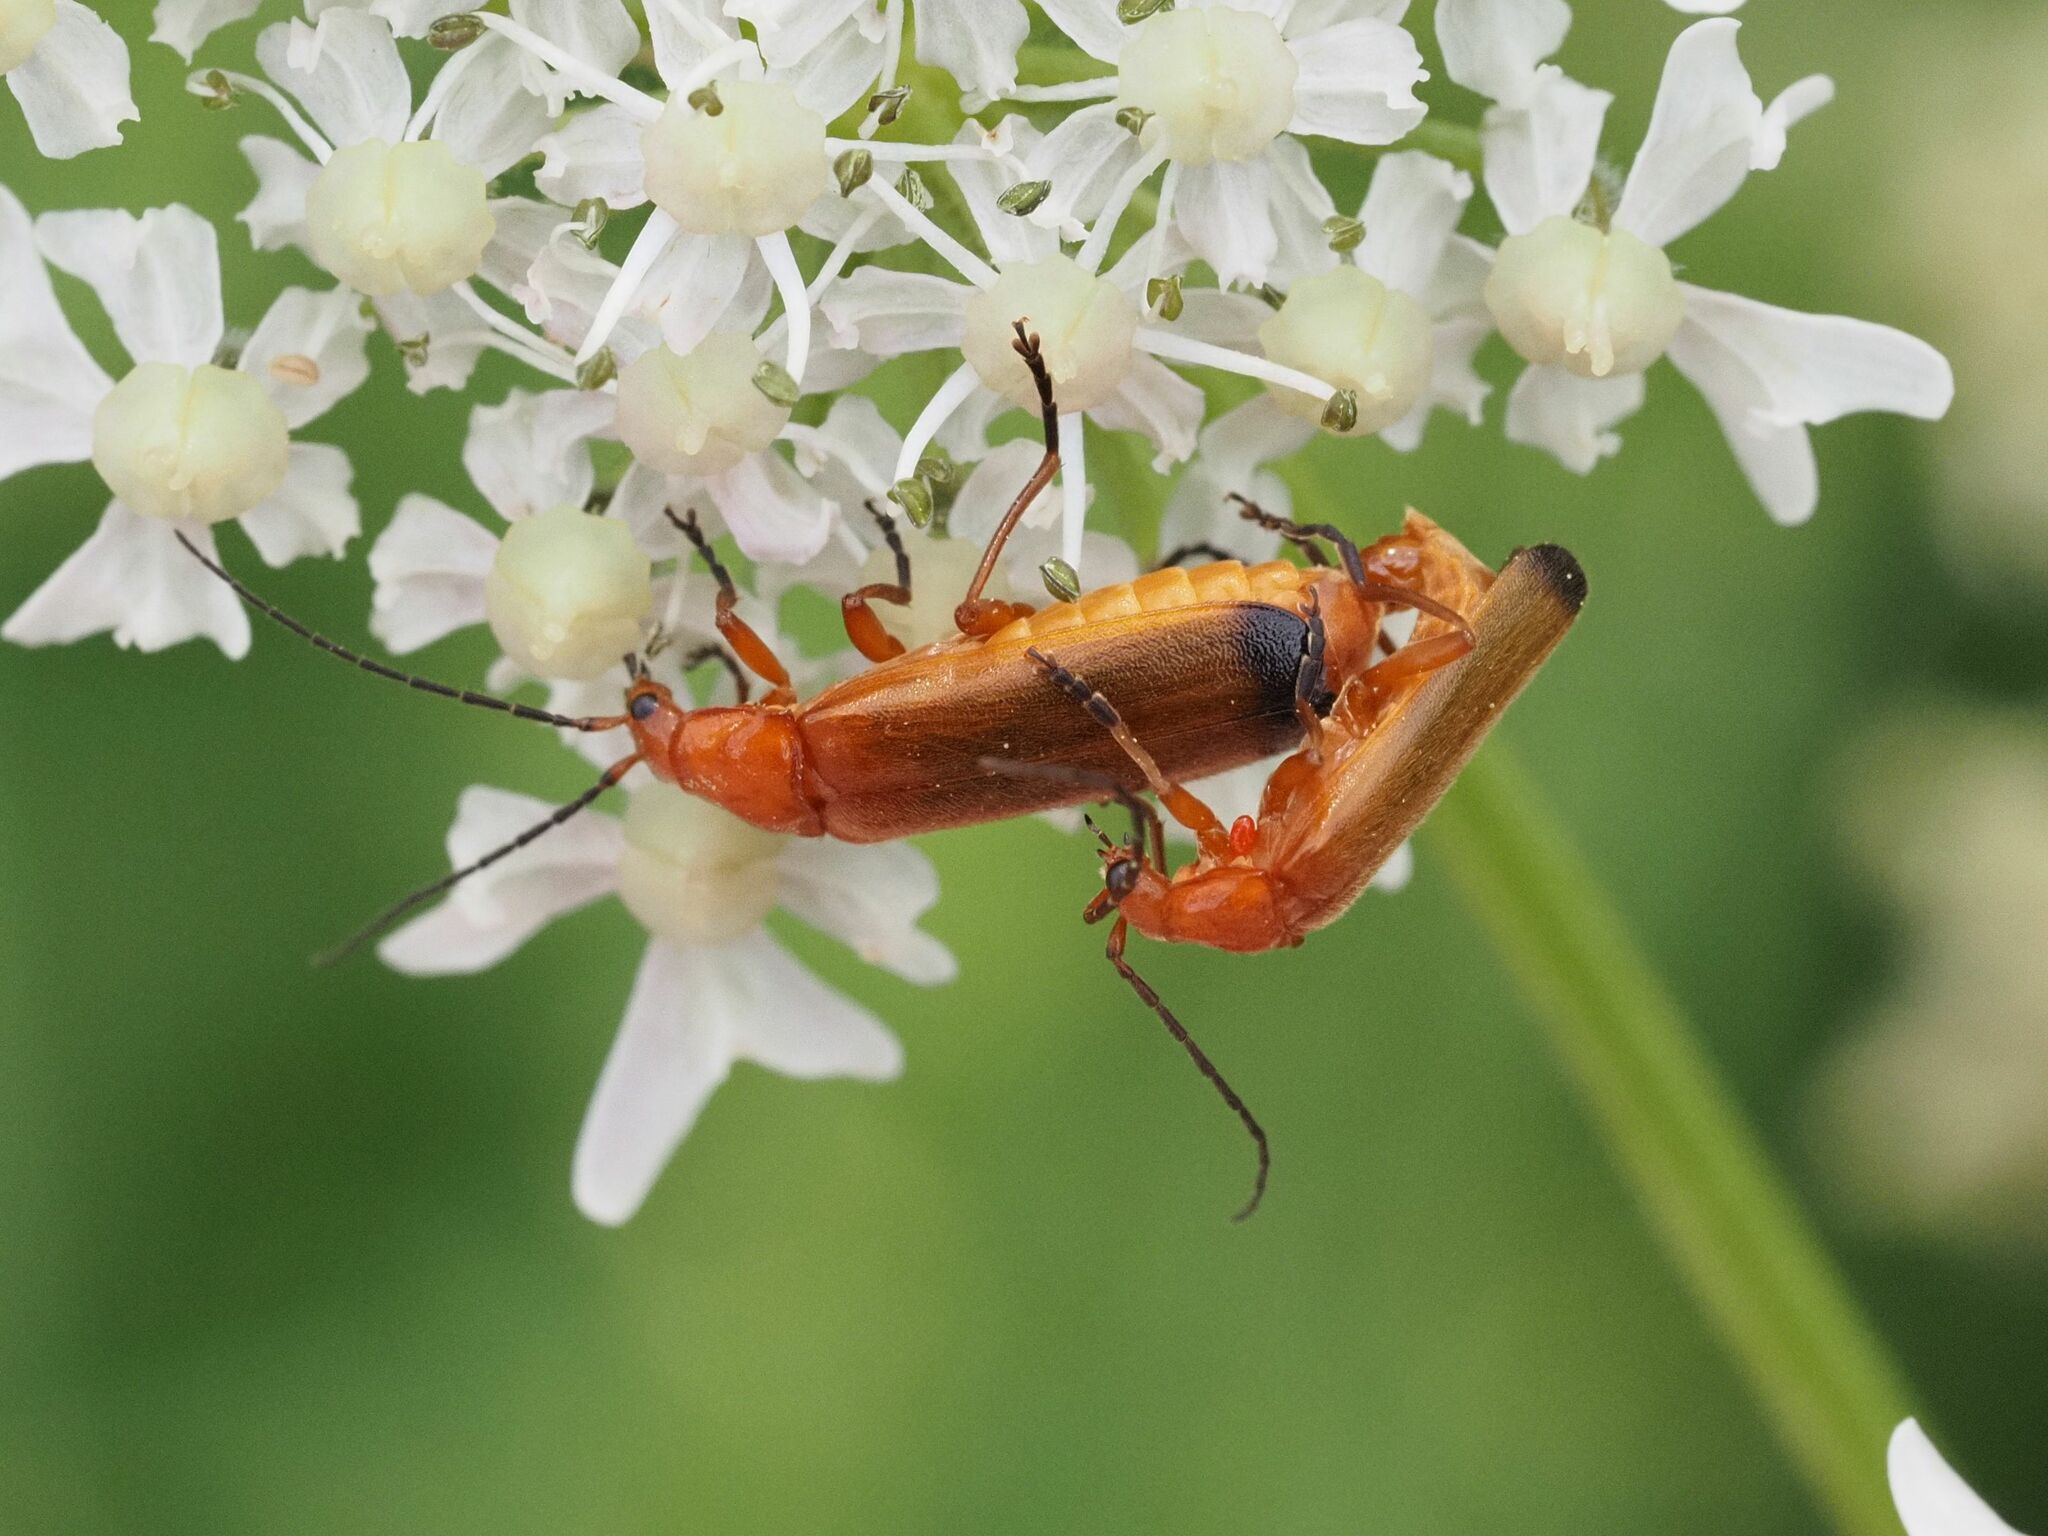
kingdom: Animalia
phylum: Arthropoda
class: Insecta
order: Coleoptera
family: Cantharidae
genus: Rhagonycha
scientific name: Rhagonycha fulva
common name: Common red soldier beetle
